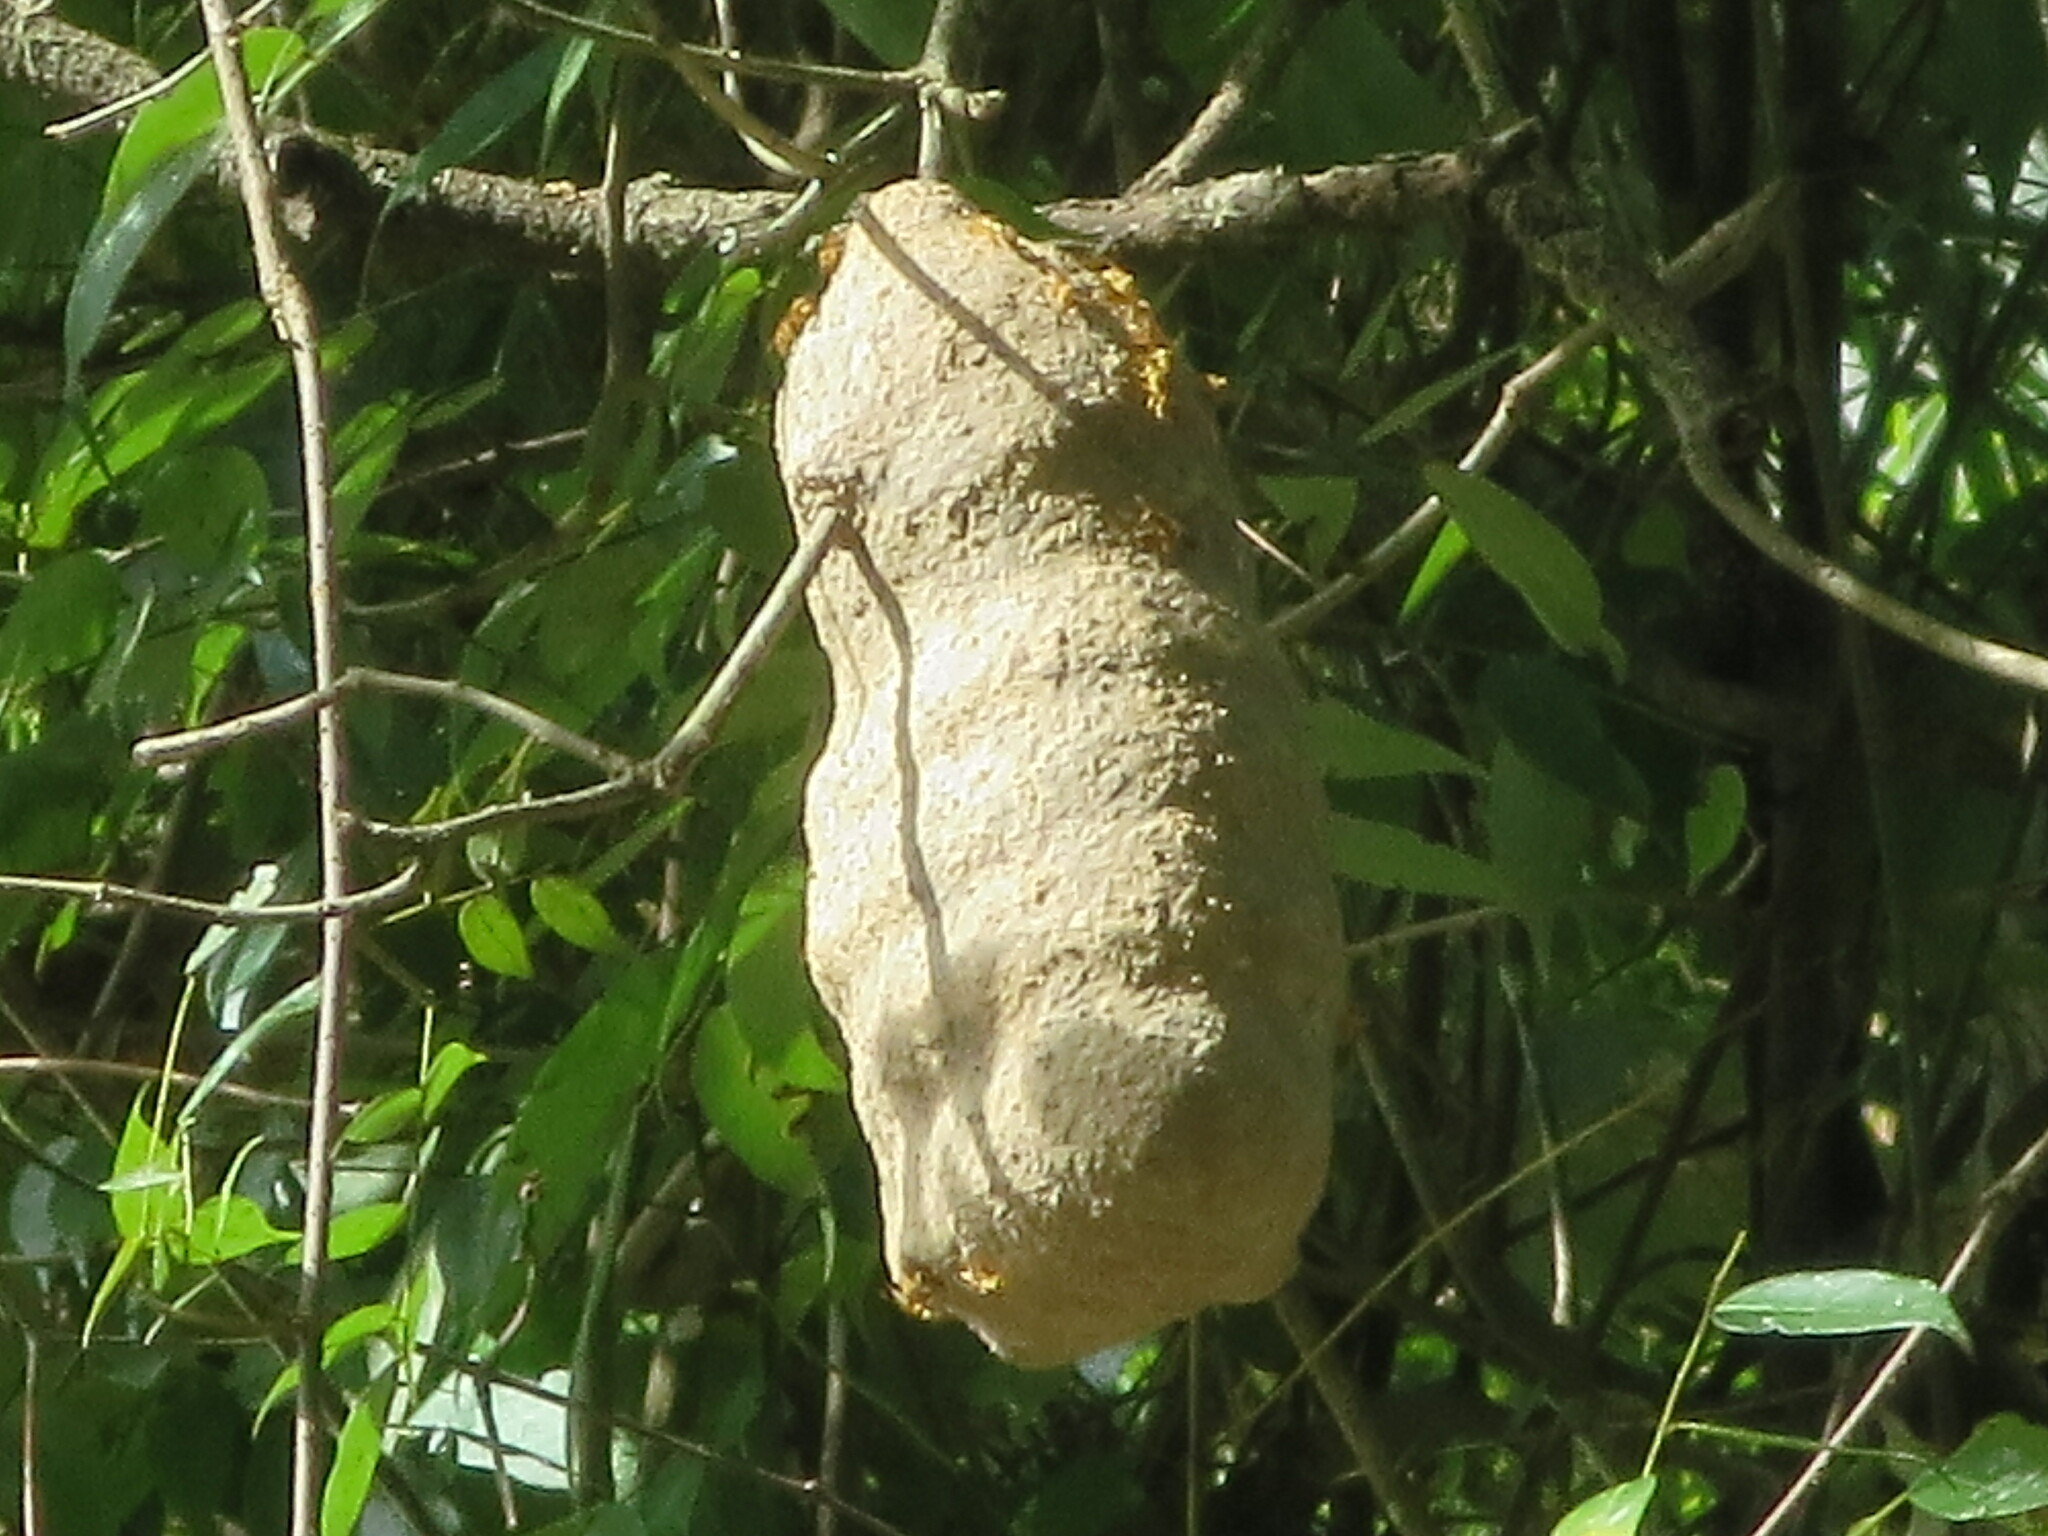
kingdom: Animalia
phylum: Arthropoda
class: Insecta
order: Hymenoptera
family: Eumenidae
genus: Polybia
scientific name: Polybia emaciata
